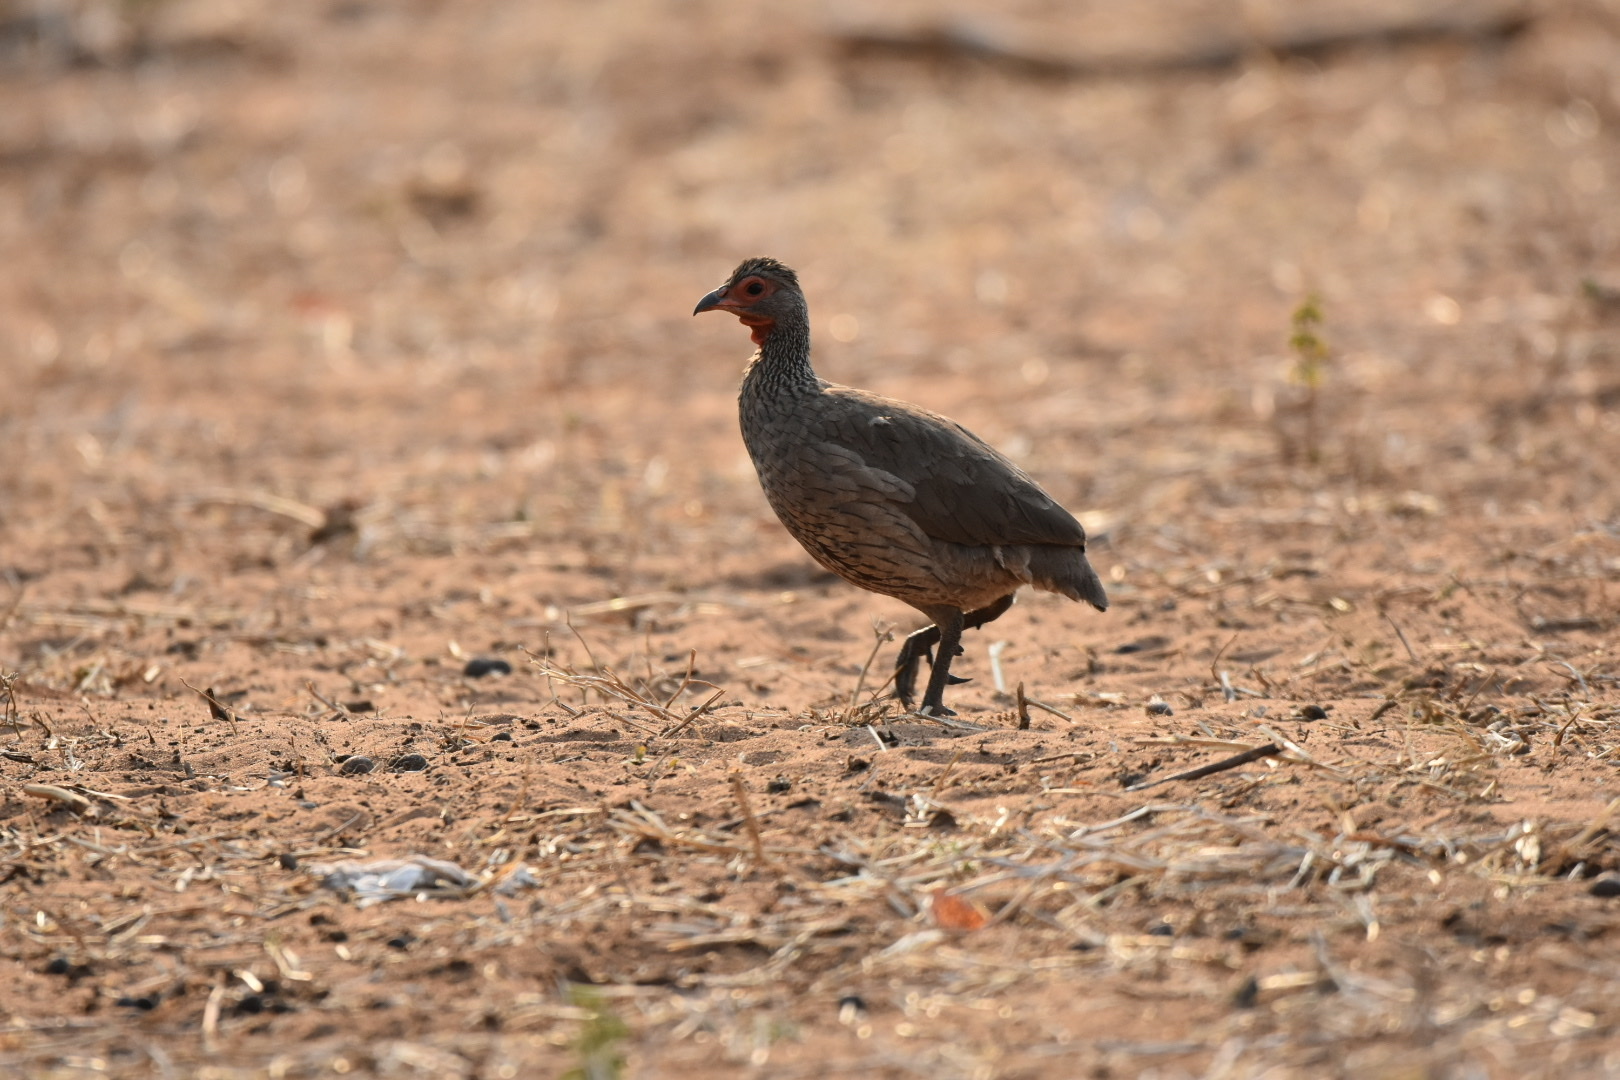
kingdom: Animalia
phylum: Chordata
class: Aves
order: Galliformes
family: Phasianidae
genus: Pternistis
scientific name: Pternistis swainsonii
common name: Swainson's spurfowl
